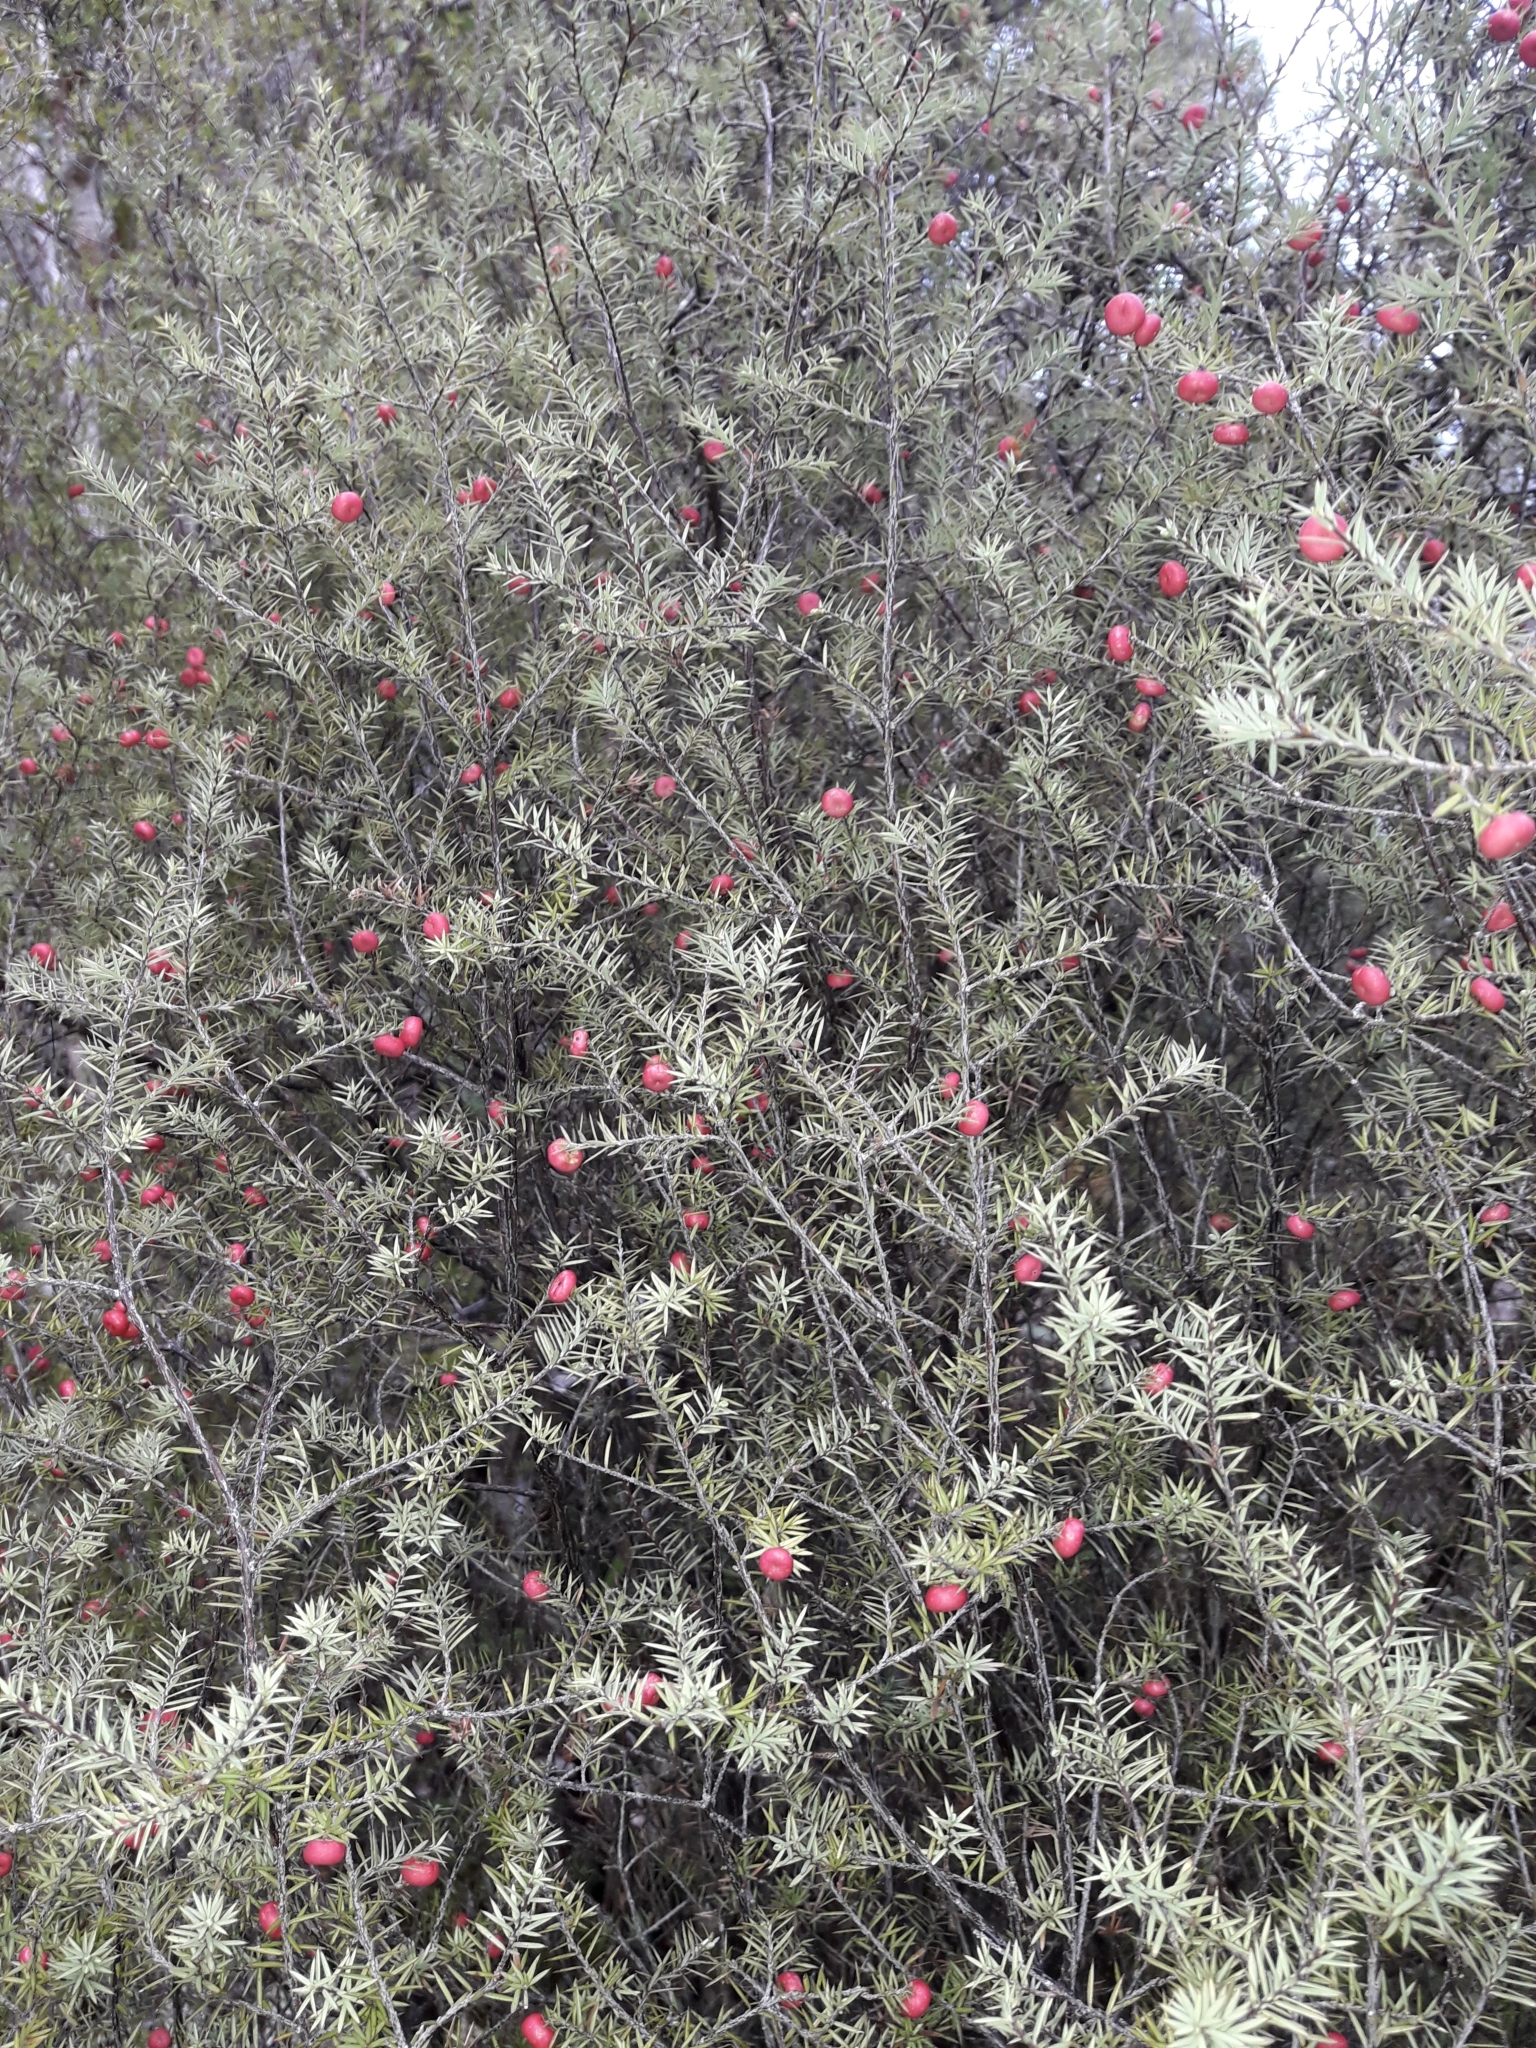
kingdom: Plantae
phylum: Tracheophyta
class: Magnoliopsida
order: Ericales
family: Ericaceae
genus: Leptecophylla
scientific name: Leptecophylla juniperina
